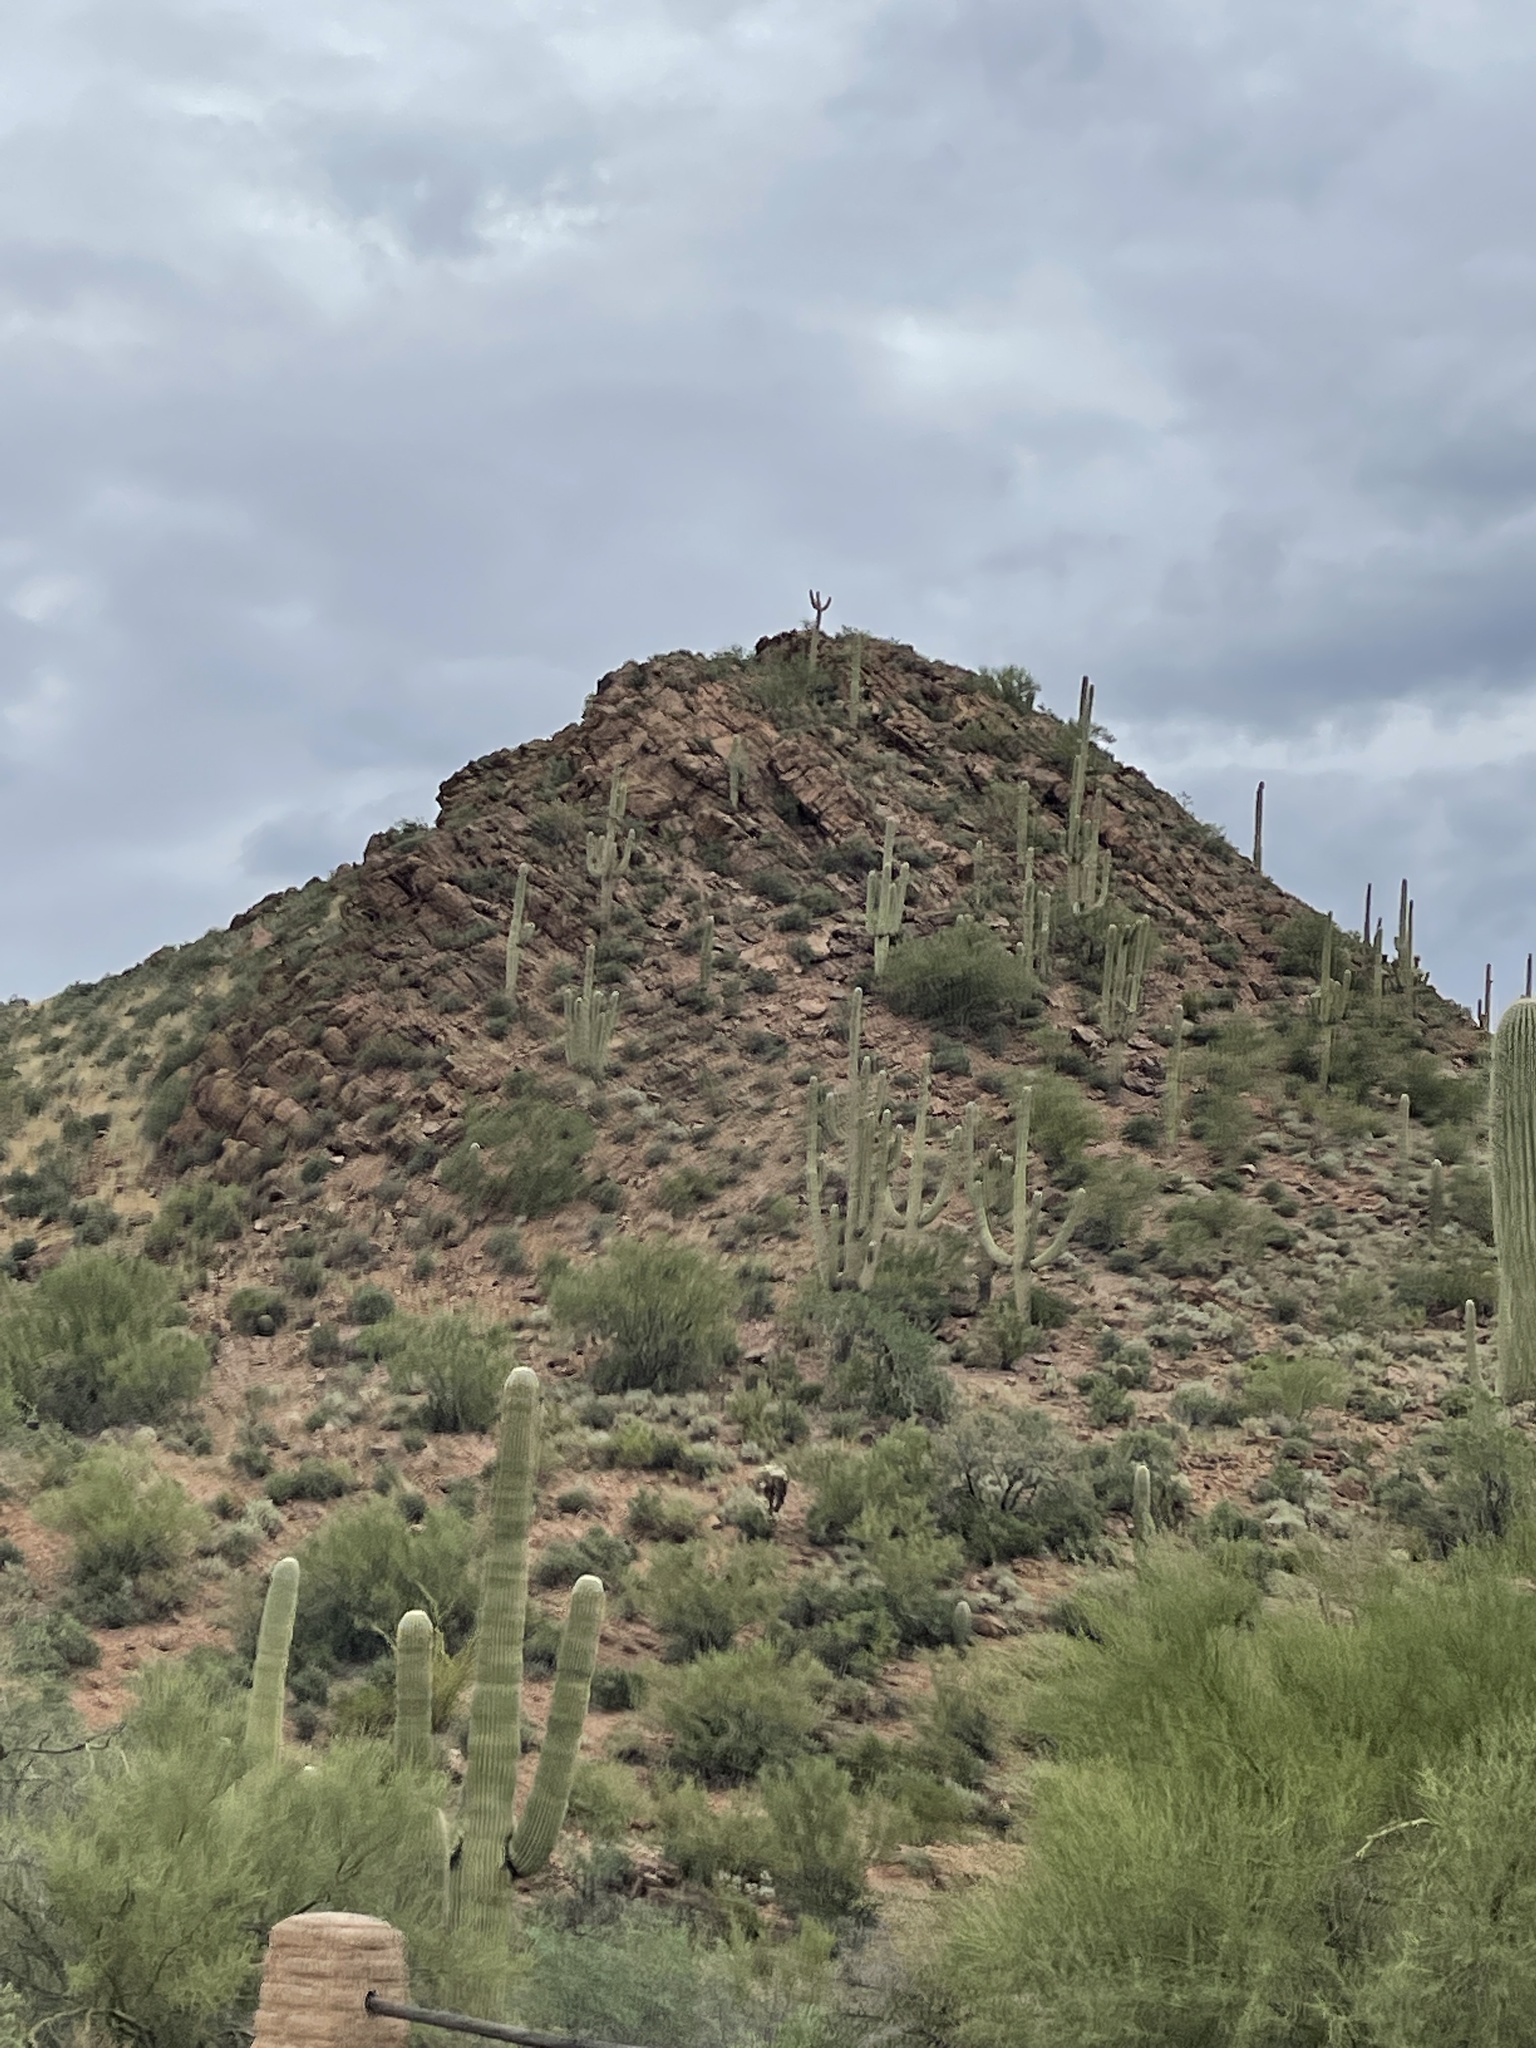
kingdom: Plantae
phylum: Tracheophyta
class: Magnoliopsida
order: Caryophyllales
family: Cactaceae
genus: Carnegiea
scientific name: Carnegiea gigantea
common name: Saguaro
